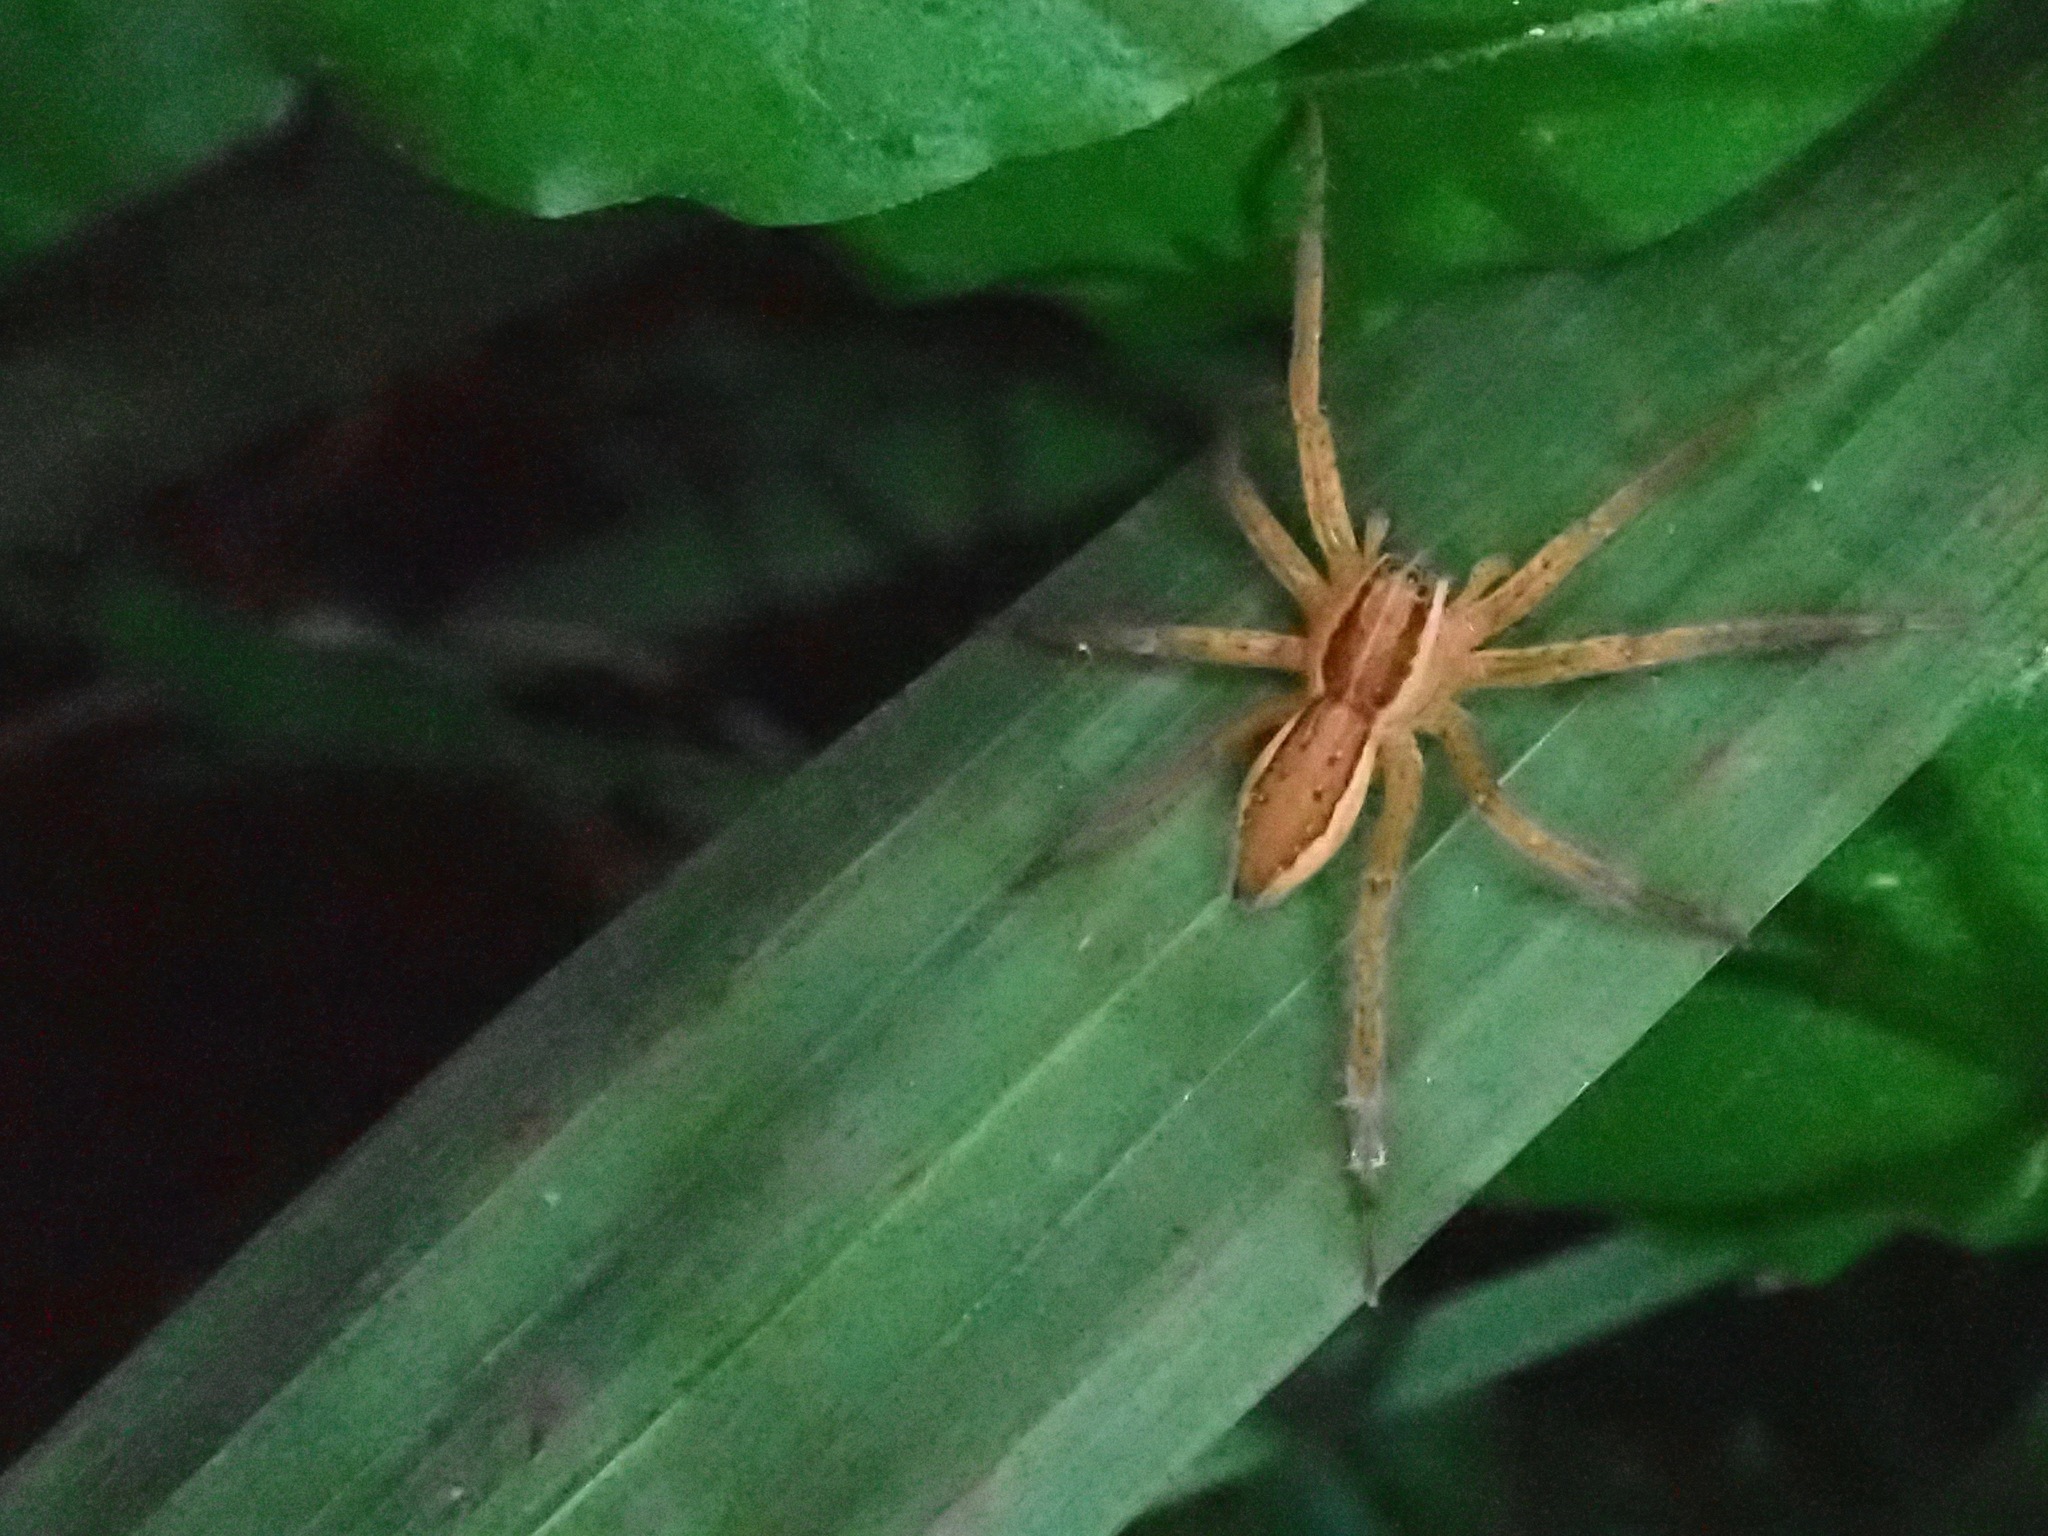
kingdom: Animalia
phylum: Arthropoda
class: Arachnida
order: Araneae
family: Pisauridae
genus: Dolomedes
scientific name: Dolomedes minor
